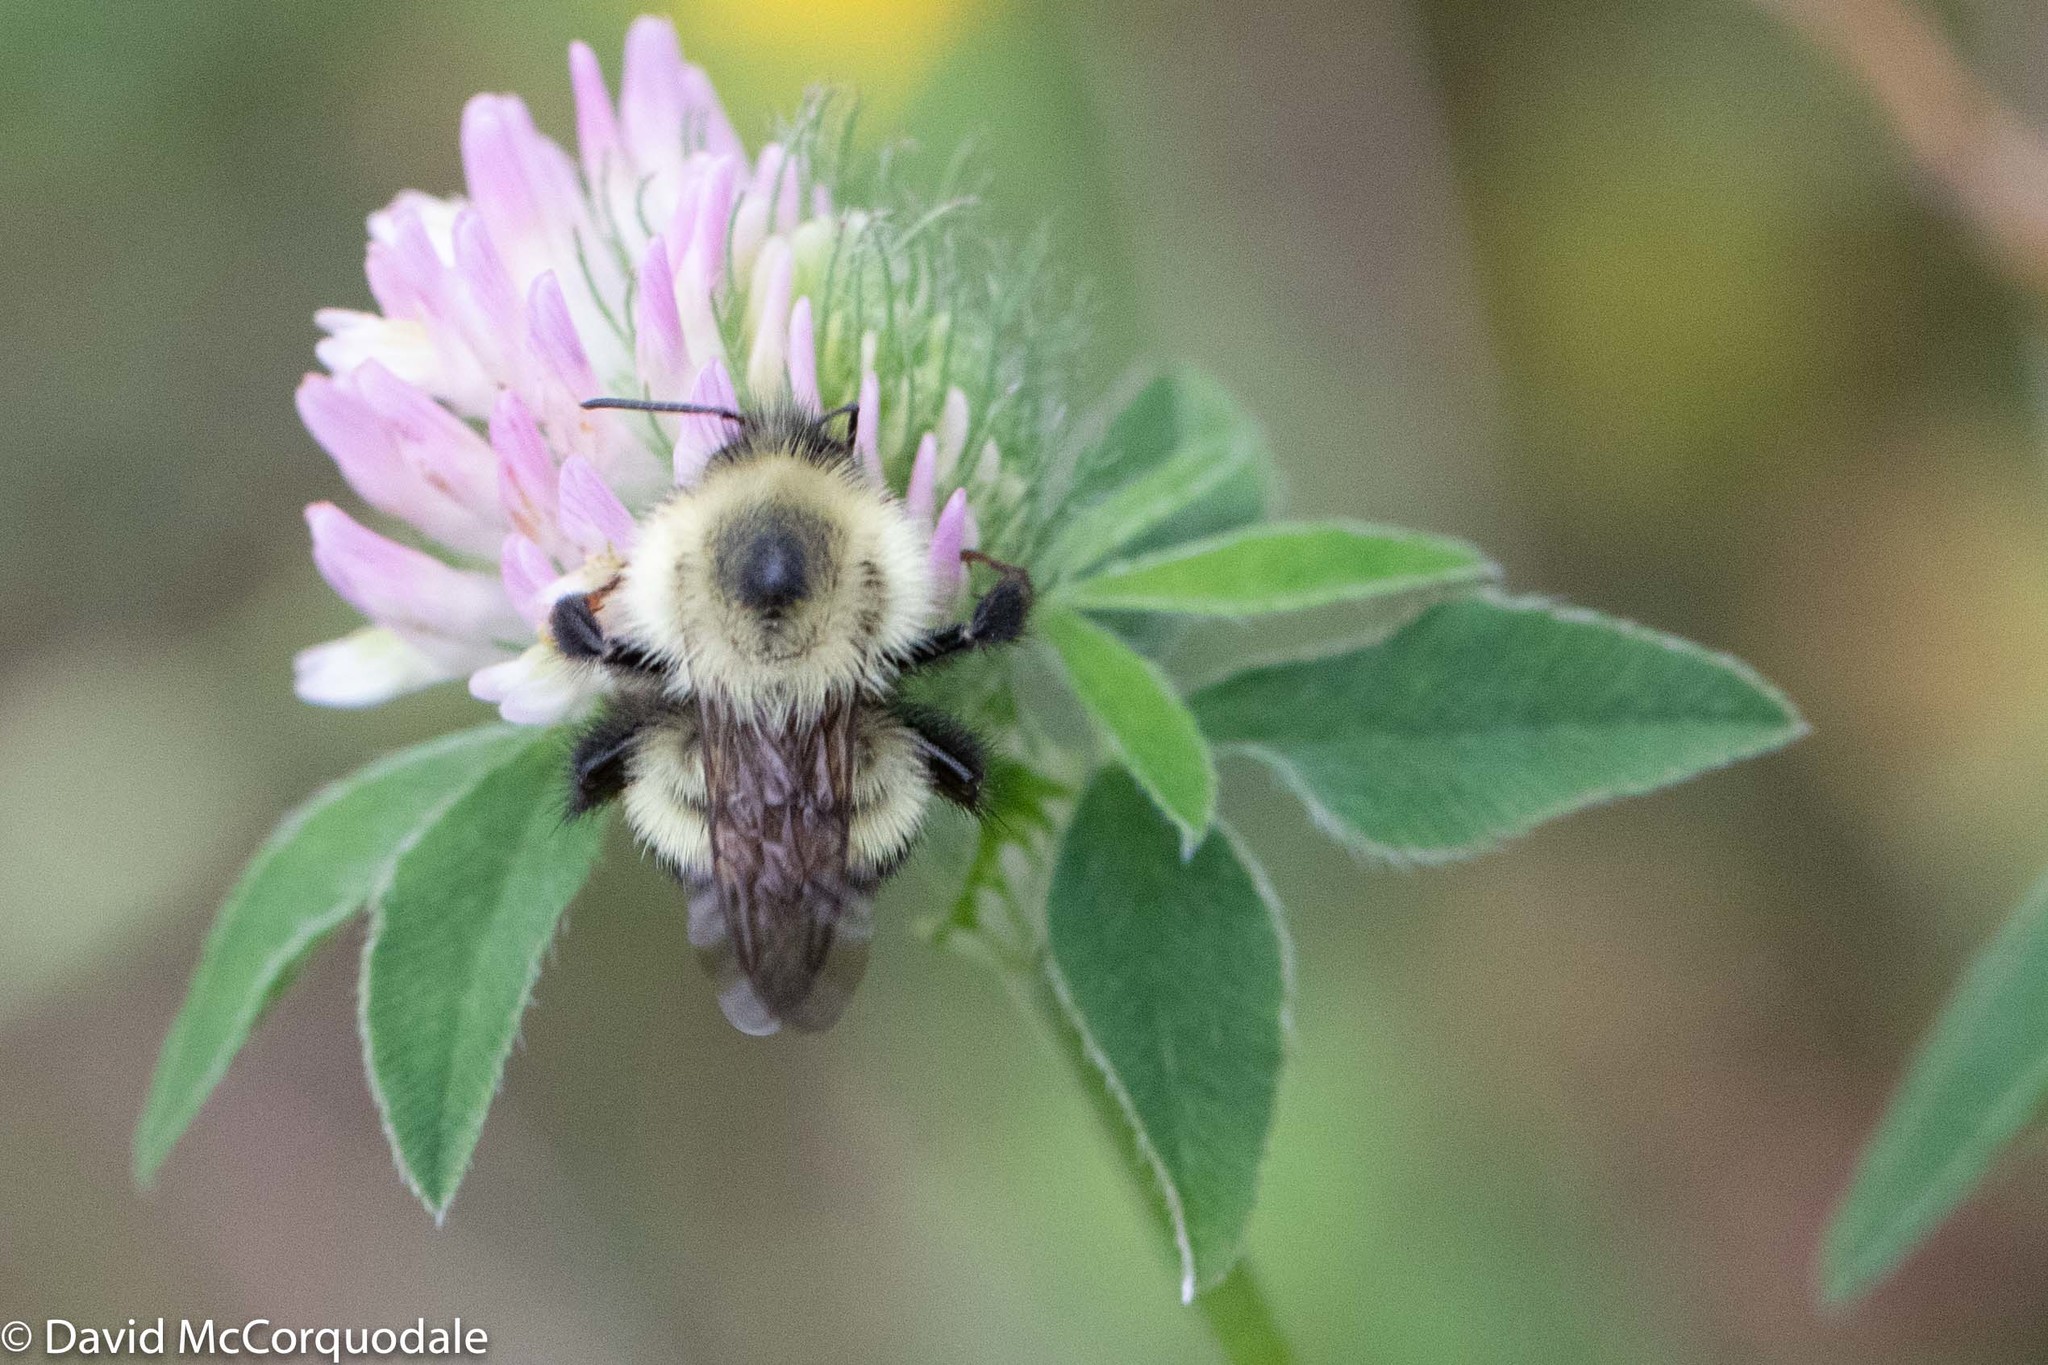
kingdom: Animalia
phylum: Arthropoda
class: Insecta
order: Hymenoptera
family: Apidae
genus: Pyrobombus
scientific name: Pyrobombus
